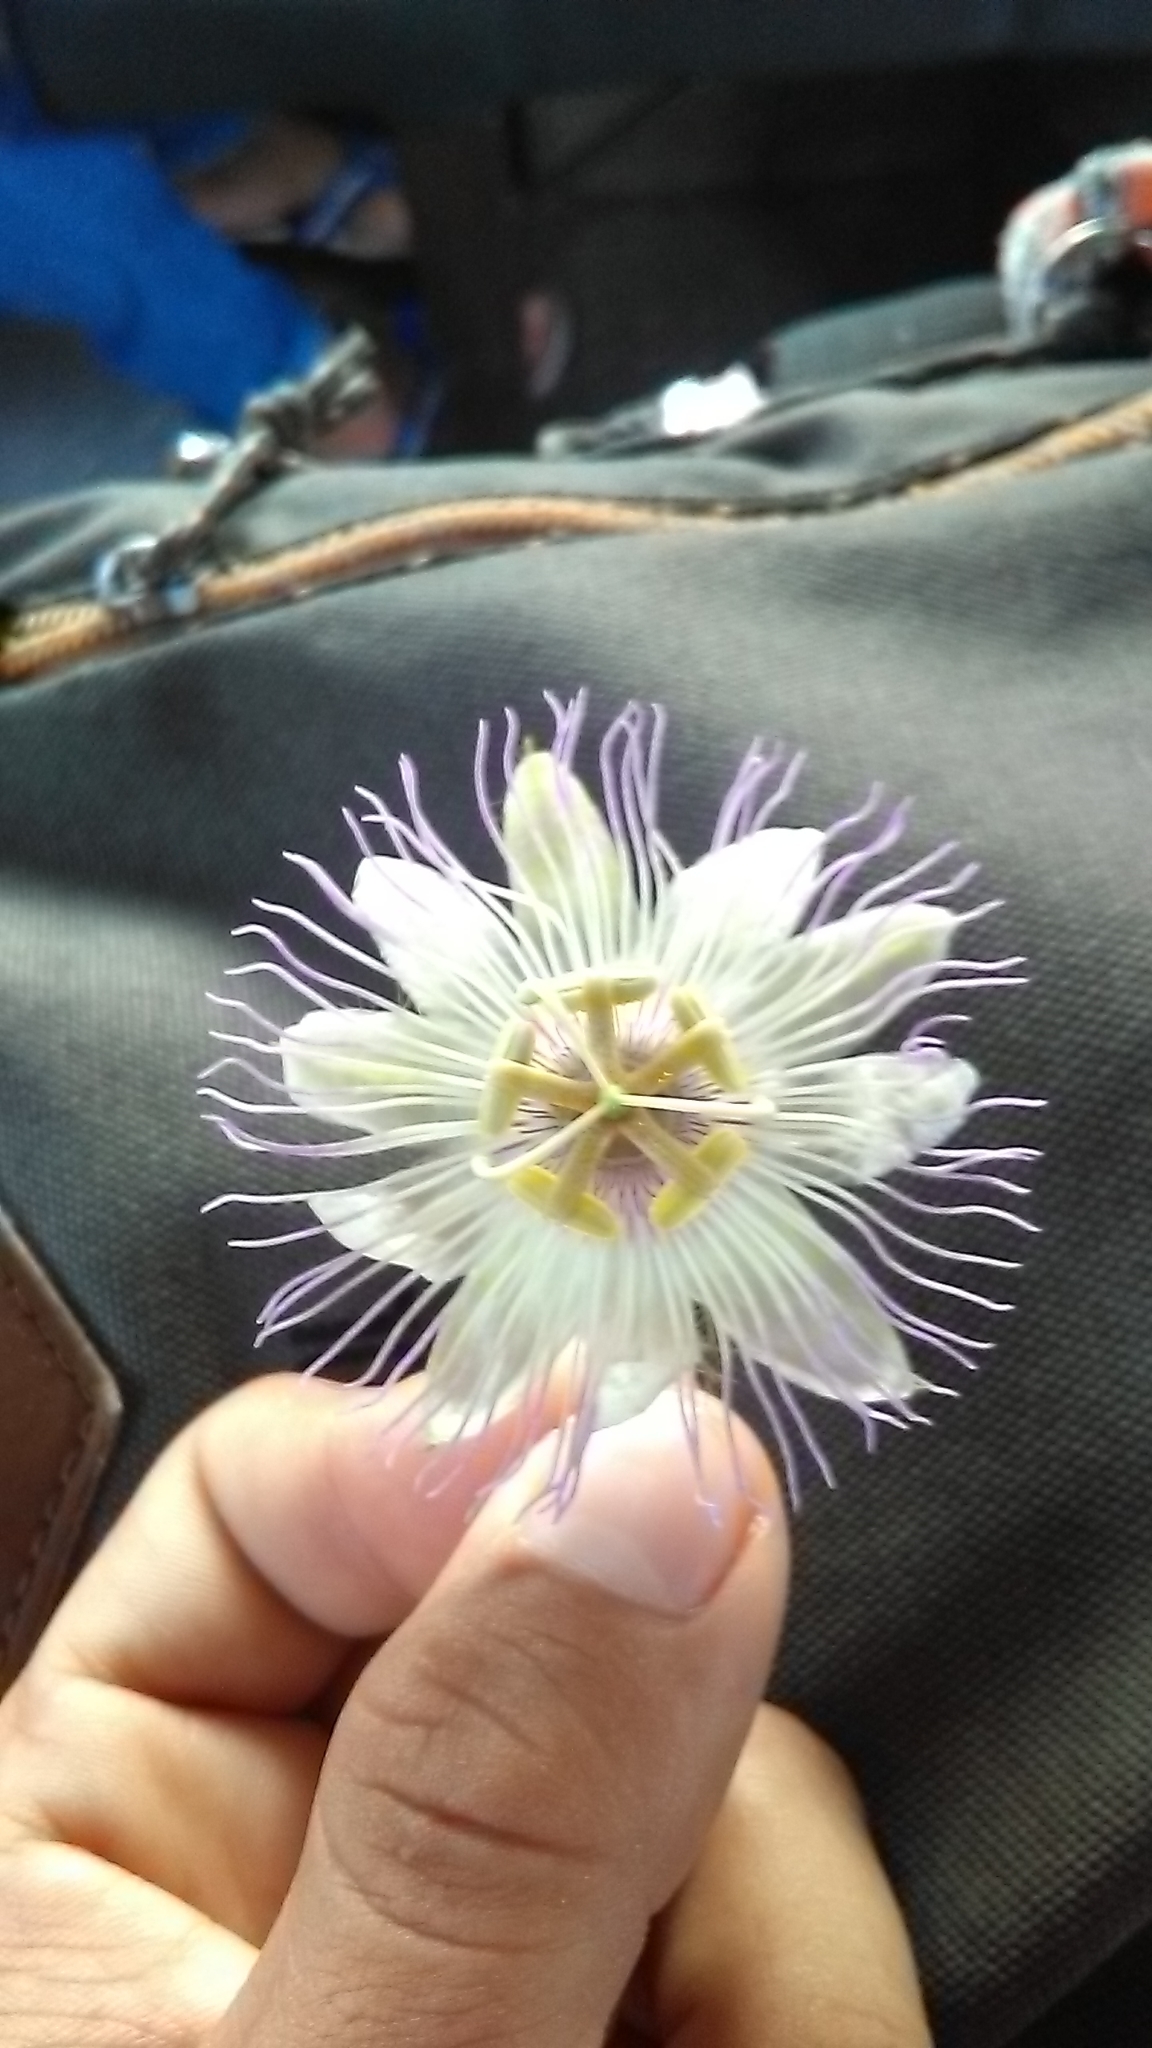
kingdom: Plantae
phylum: Tracheophyta
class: Magnoliopsida
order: Malpighiales
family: Passifloraceae
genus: Passiflora
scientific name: Passiflora foetida
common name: Fetid passionflower
